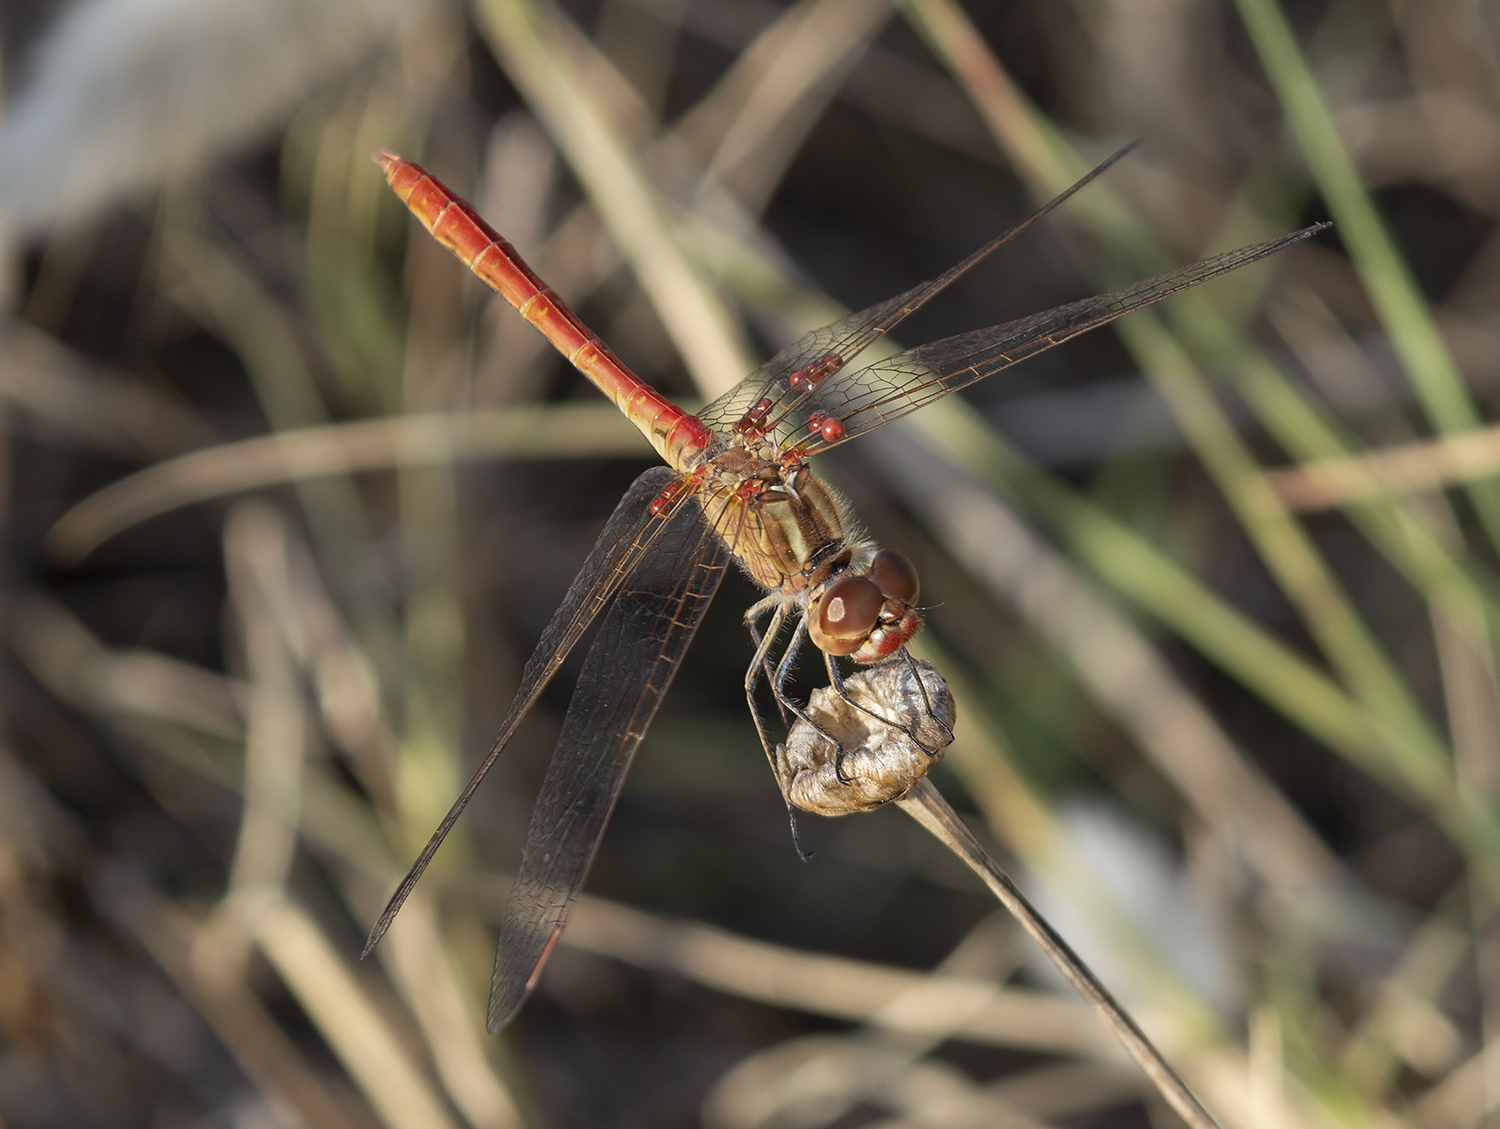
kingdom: Animalia
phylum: Arthropoda
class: Insecta
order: Odonata
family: Libellulidae
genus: Sympetrum
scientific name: Sympetrum meridionale
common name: Southern darter
